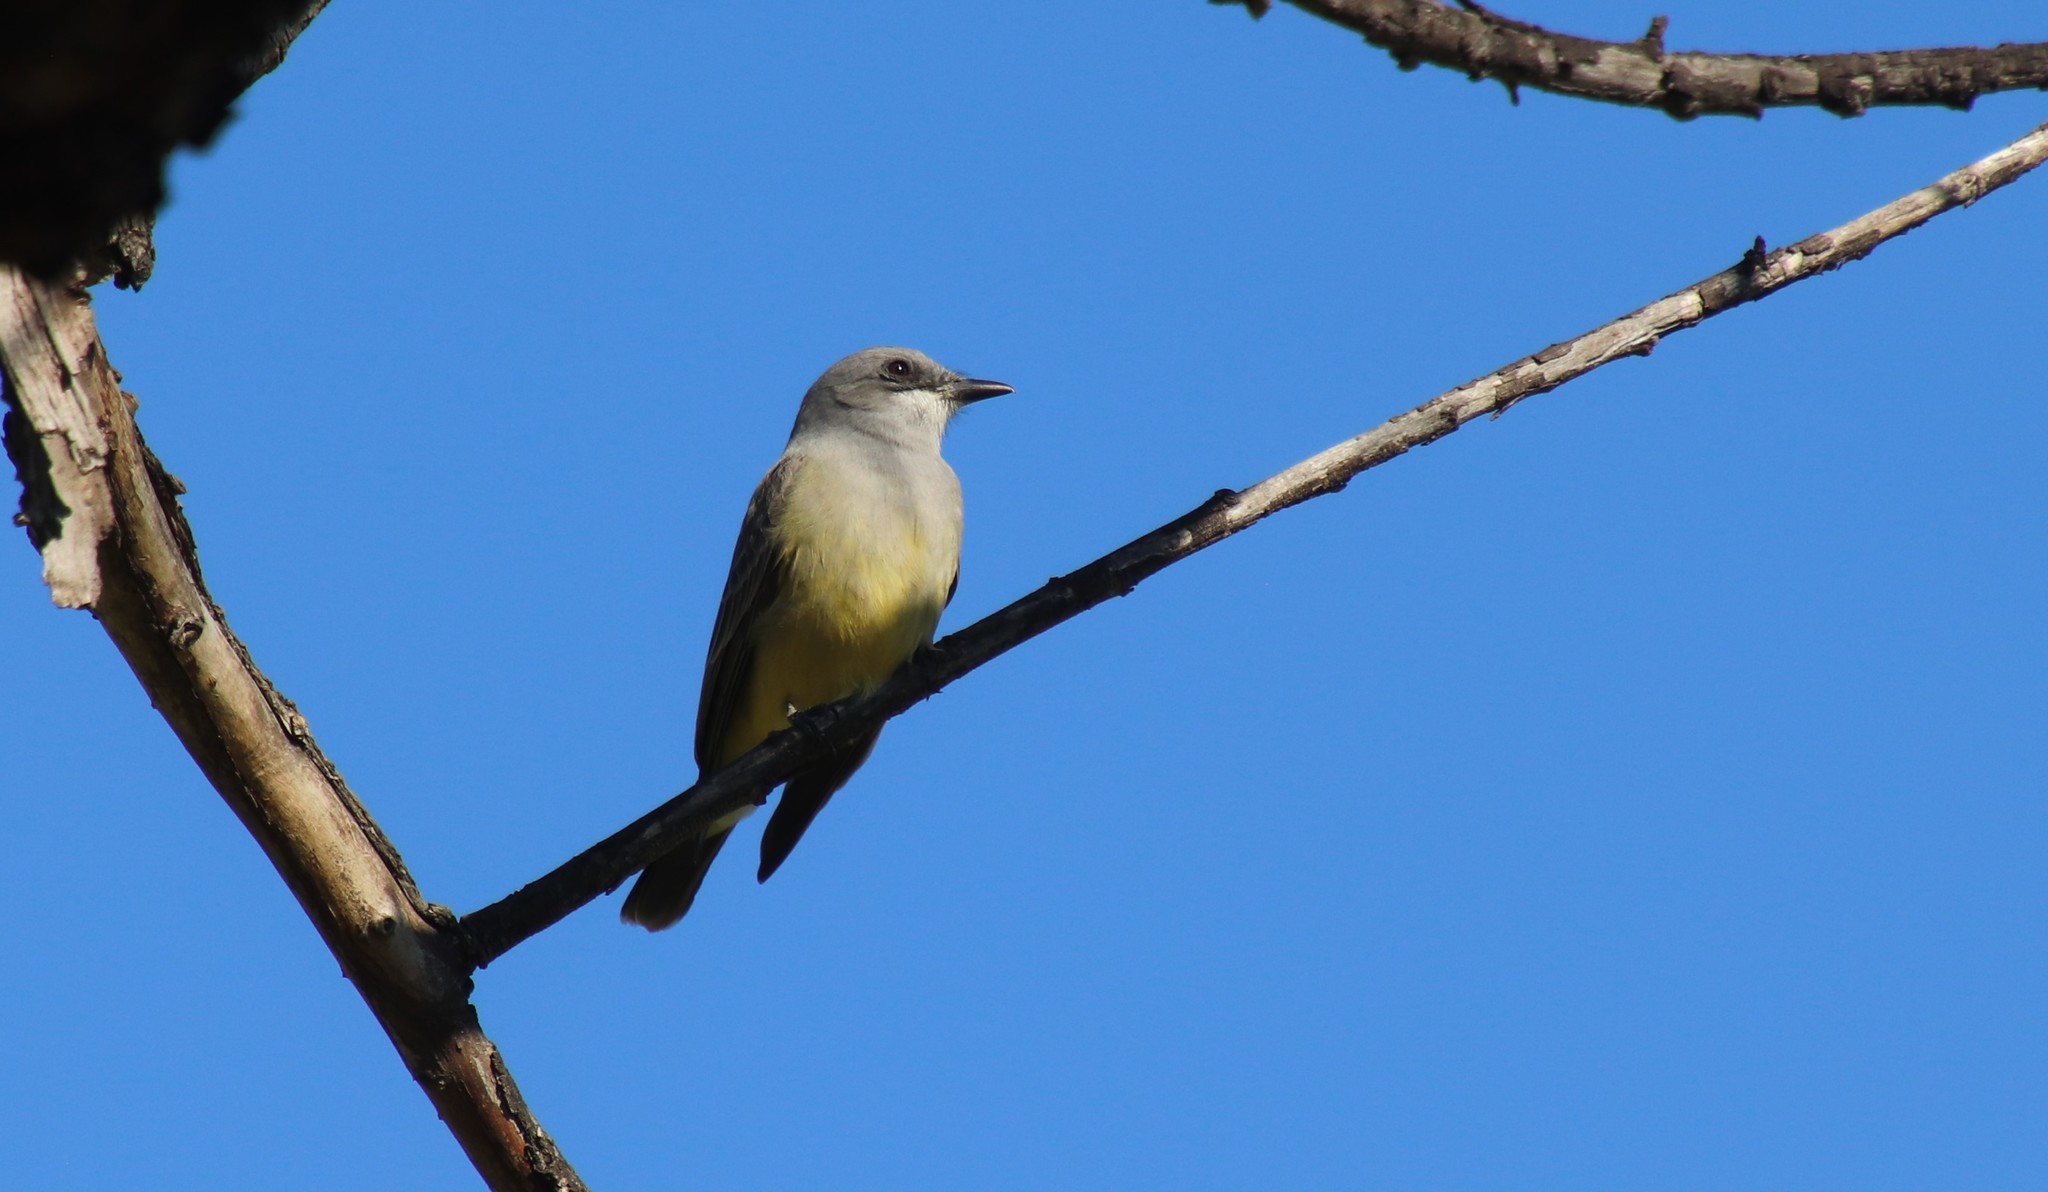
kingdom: Animalia
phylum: Chordata
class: Aves
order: Passeriformes
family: Tyrannidae
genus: Tyrannus
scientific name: Tyrannus vociferans
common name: Cassin's kingbird
